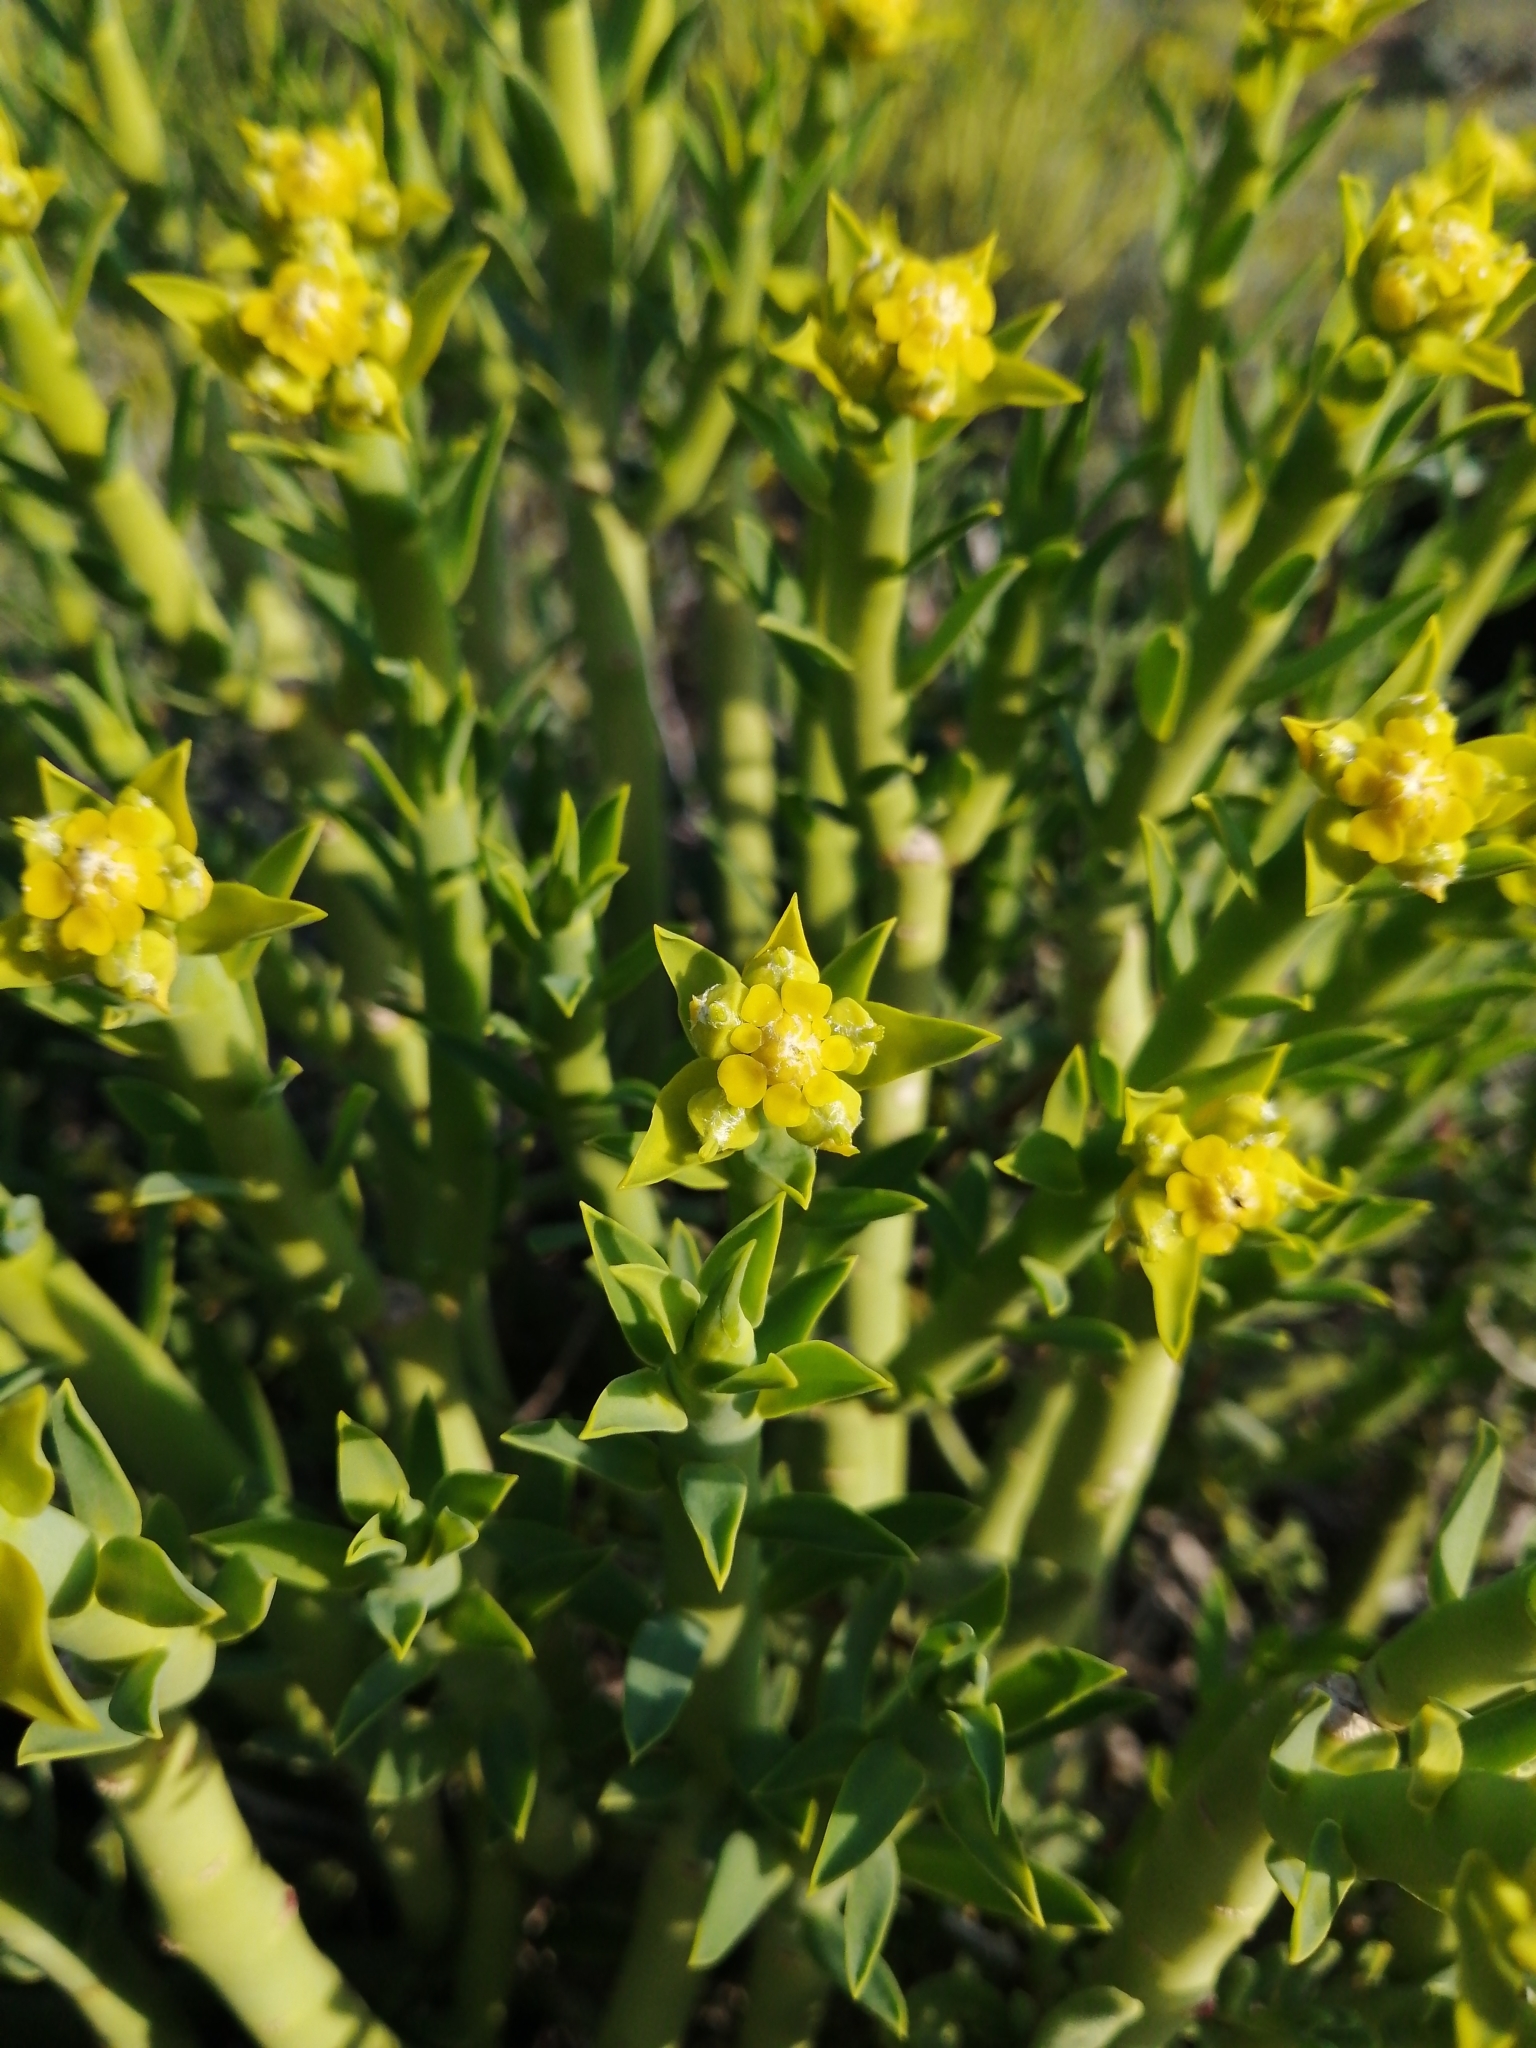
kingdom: Plantae
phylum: Tracheophyta
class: Magnoliopsida
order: Malpighiales
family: Euphorbiaceae
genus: Euphorbia
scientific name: Euphorbia mauritanica
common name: Jackal's-food
